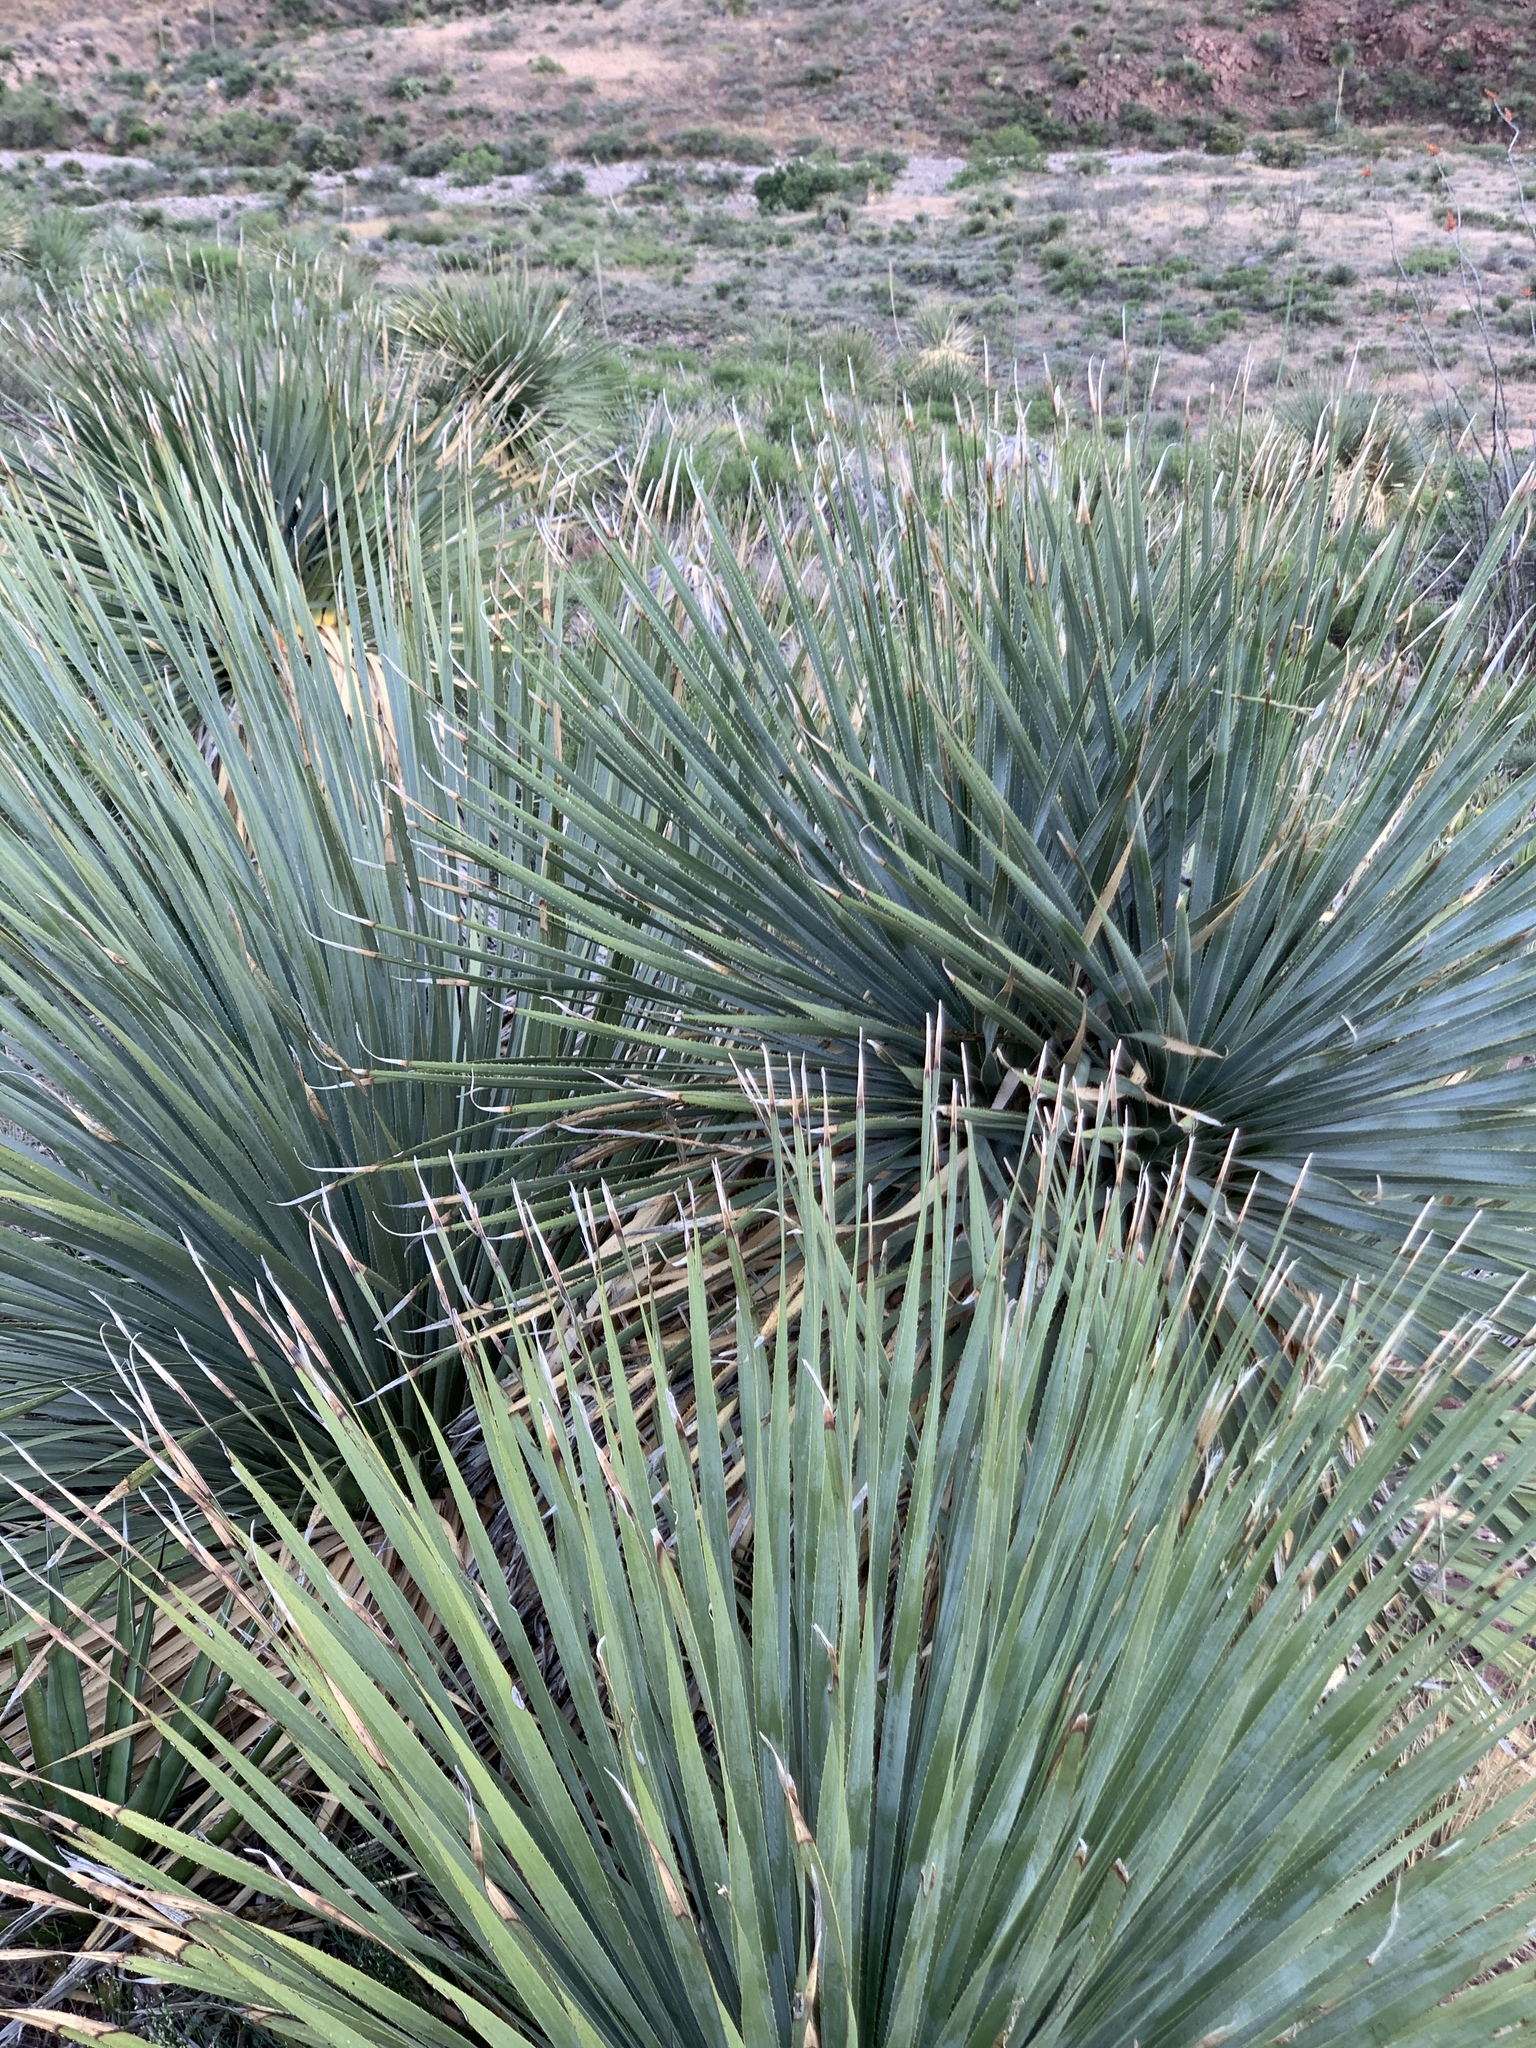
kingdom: Plantae
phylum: Tracheophyta
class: Liliopsida
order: Asparagales
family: Asparagaceae
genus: Dasylirion
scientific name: Dasylirion wheeleri
